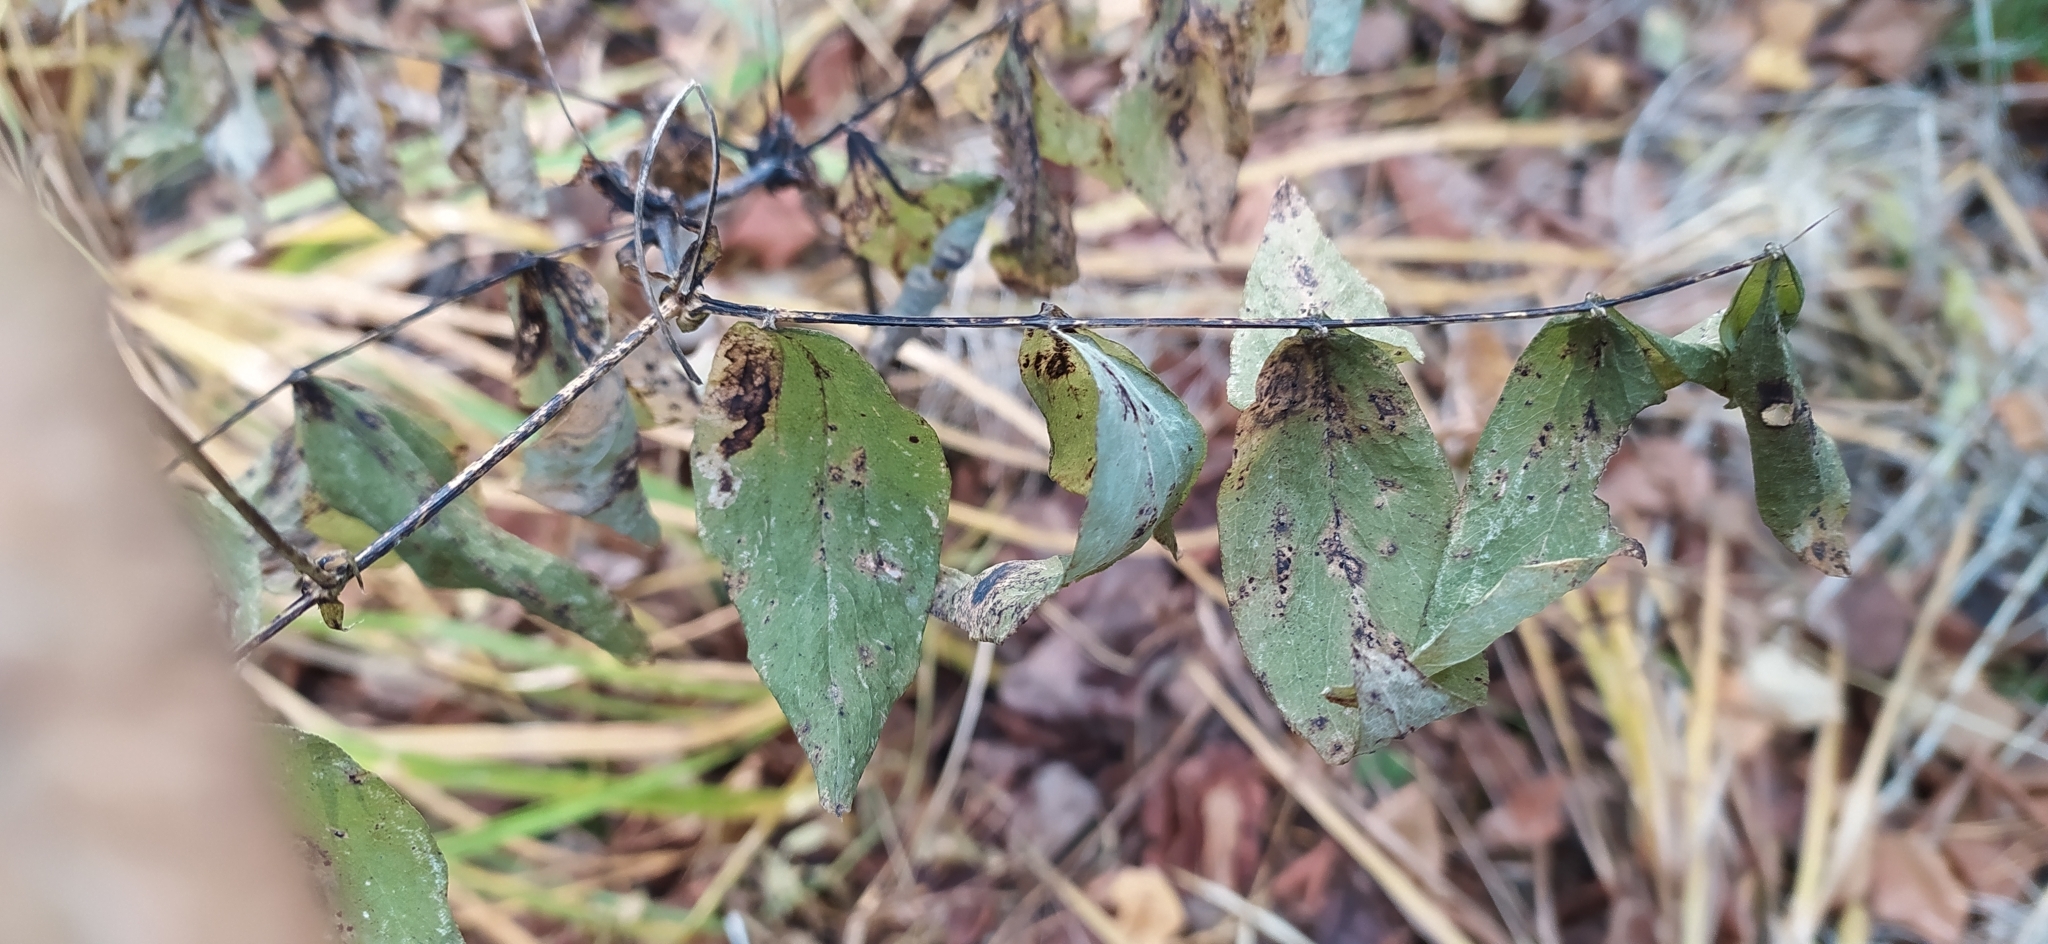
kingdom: Plantae
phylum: Tracheophyta
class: Magnoliopsida
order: Fabales
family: Fabaceae
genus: Lathyrus
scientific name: Lathyrus gmelinii
